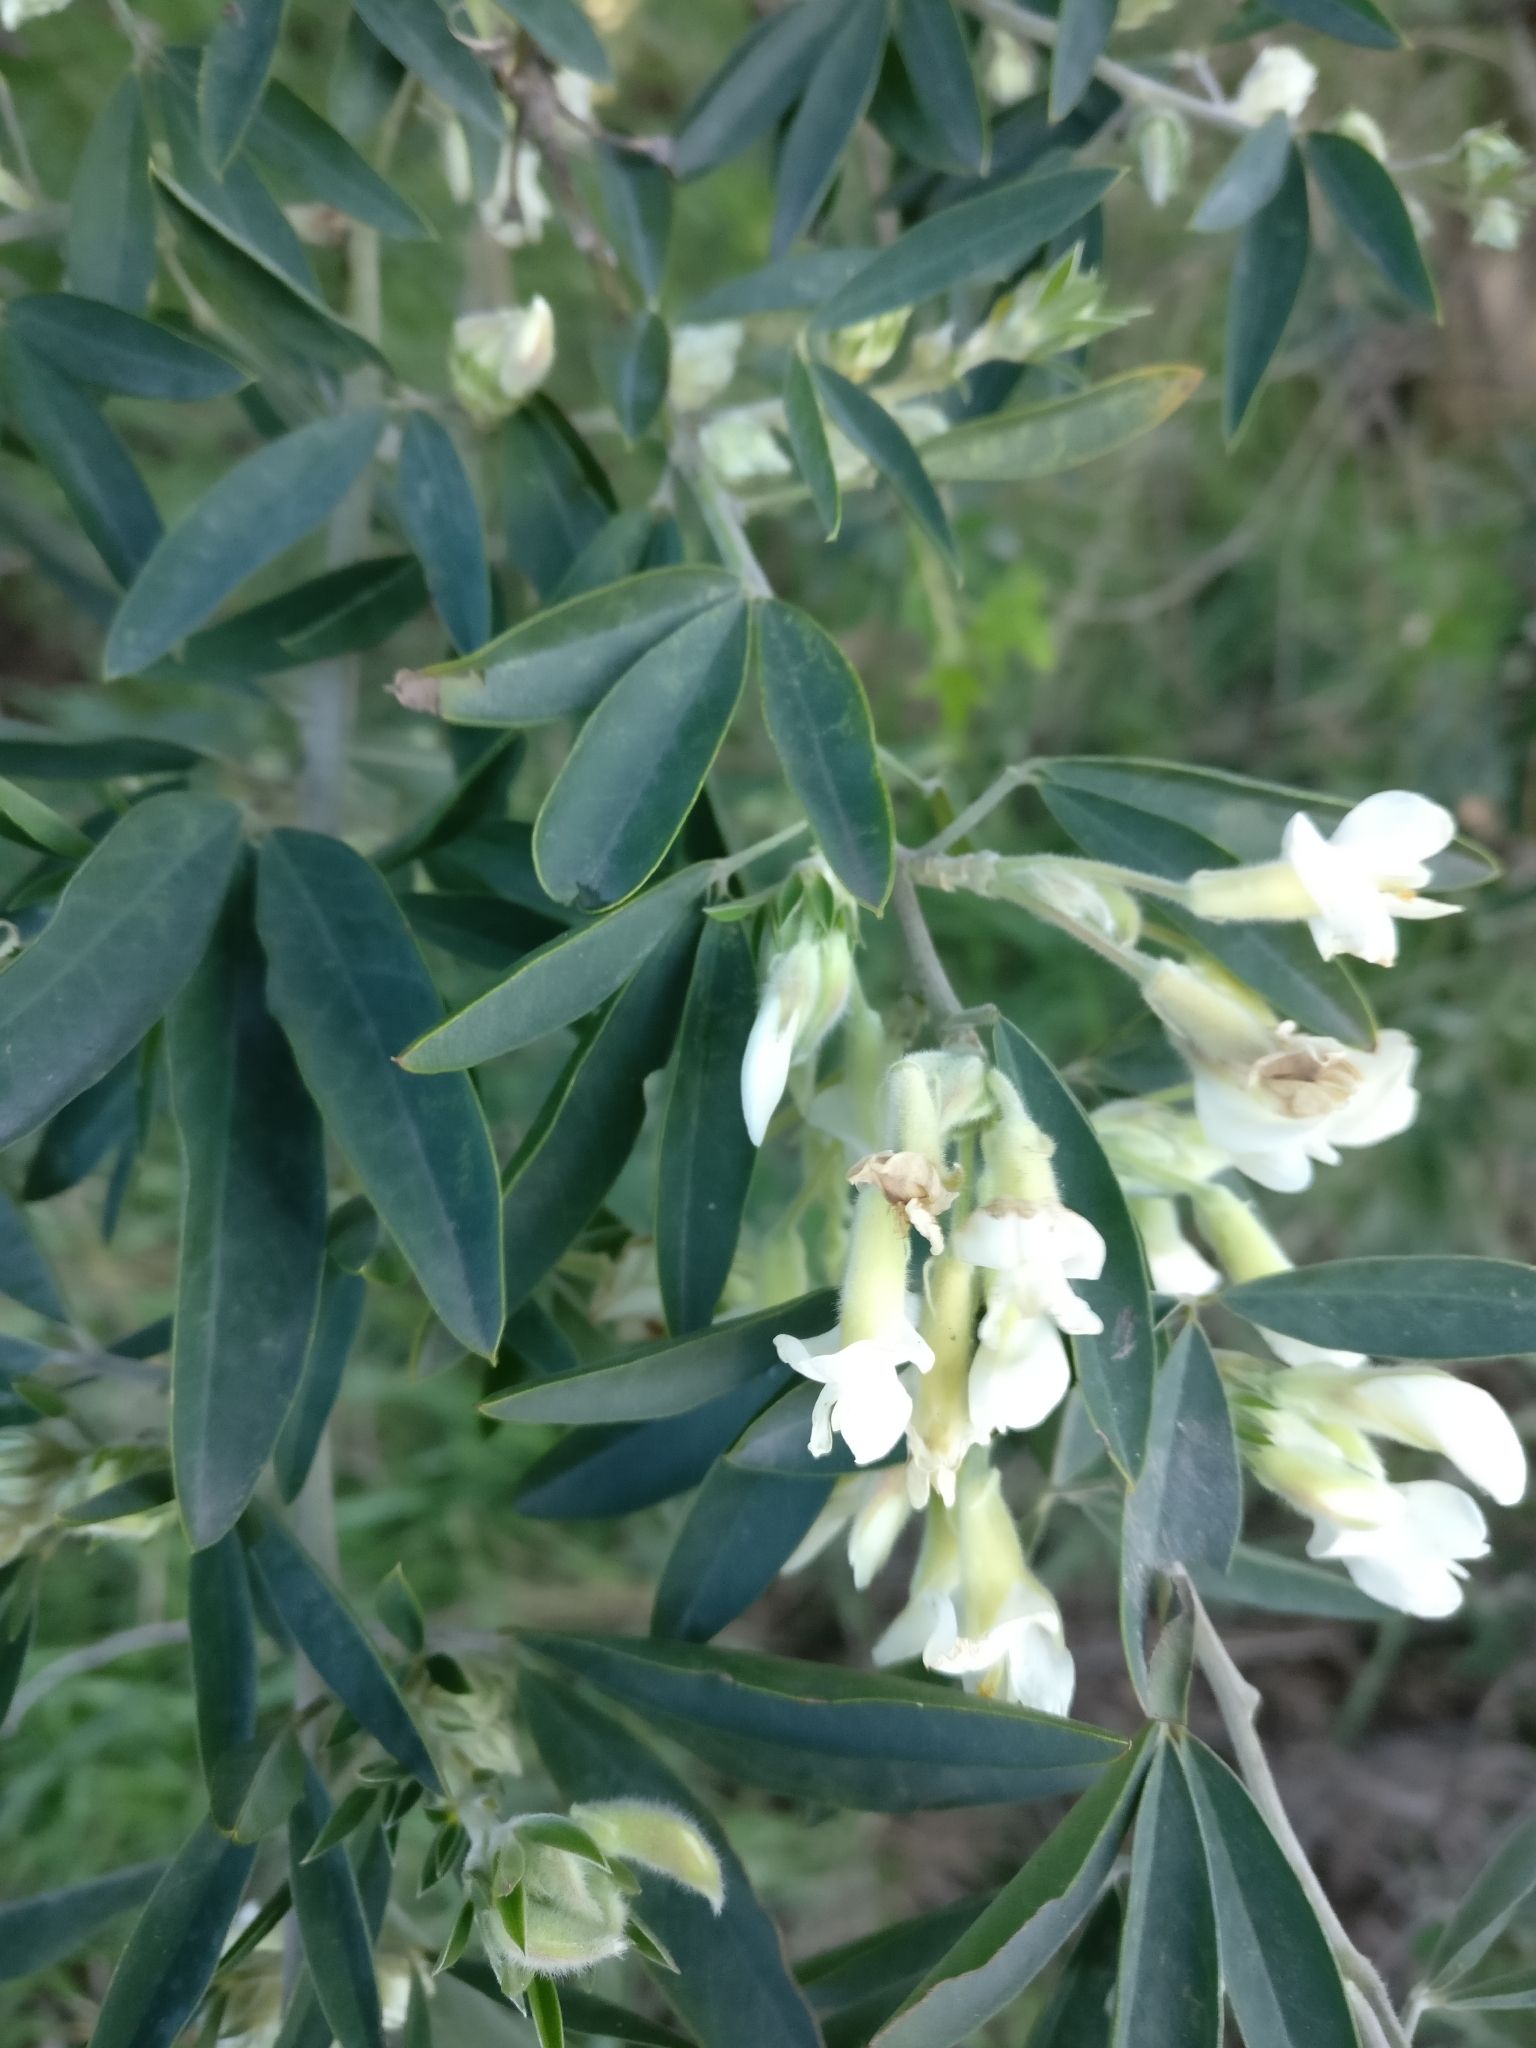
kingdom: Plantae
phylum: Tracheophyta
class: Magnoliopsida
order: Fabales
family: Fabaceae
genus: Chamaecytisus
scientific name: Chamaecytisus prolifer
